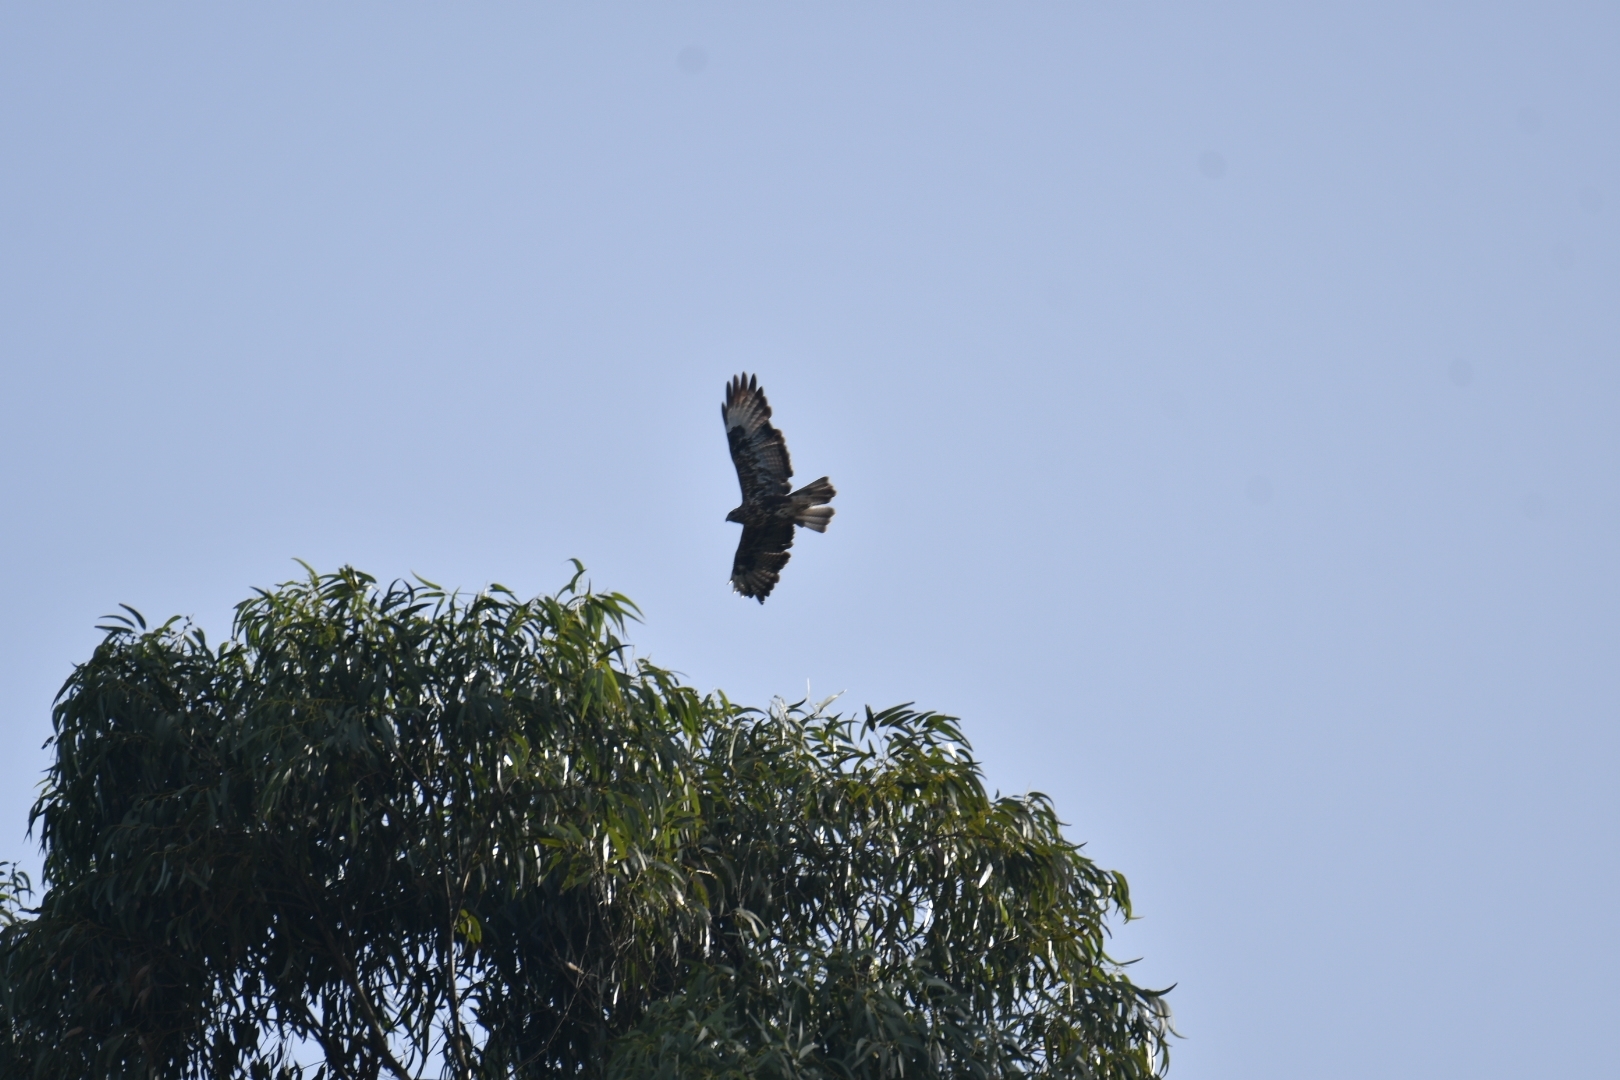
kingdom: Animalia
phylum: Chordata
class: Aves
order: Accipitriformes
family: Accipitridae
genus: Buteo
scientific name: Buteo buteo
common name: Common buzzard
